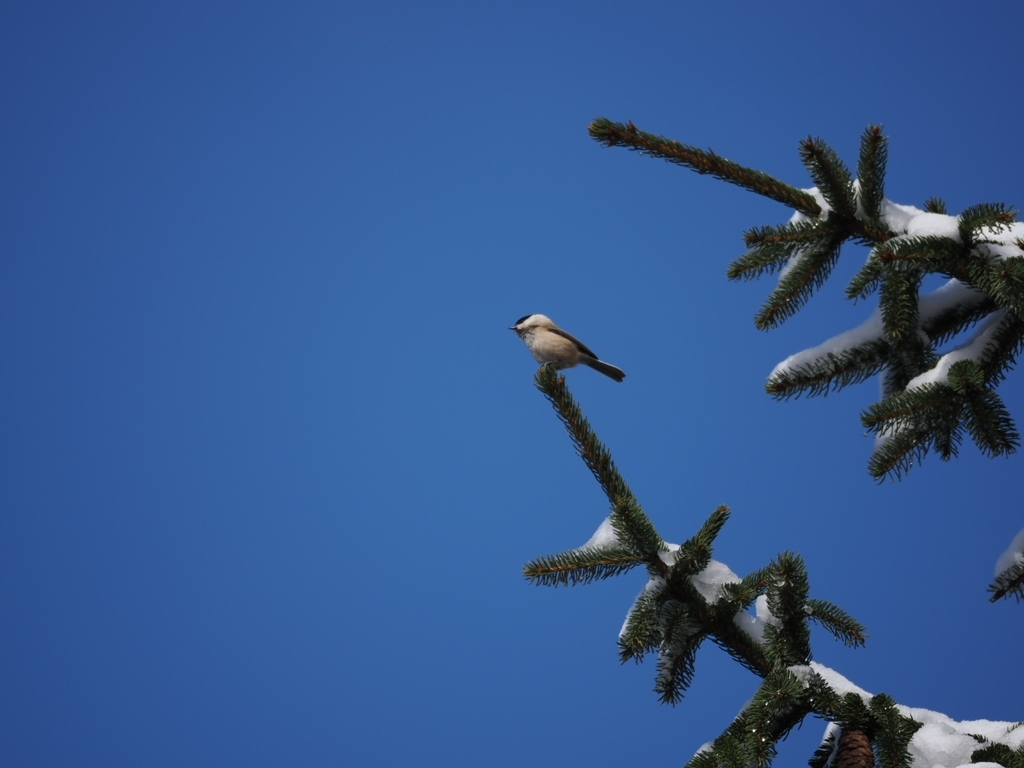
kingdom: Animalia
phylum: Chordata
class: Aves
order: Passeriformes
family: Paridae
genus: Poecile
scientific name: Poecile montanus
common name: Willow tit
